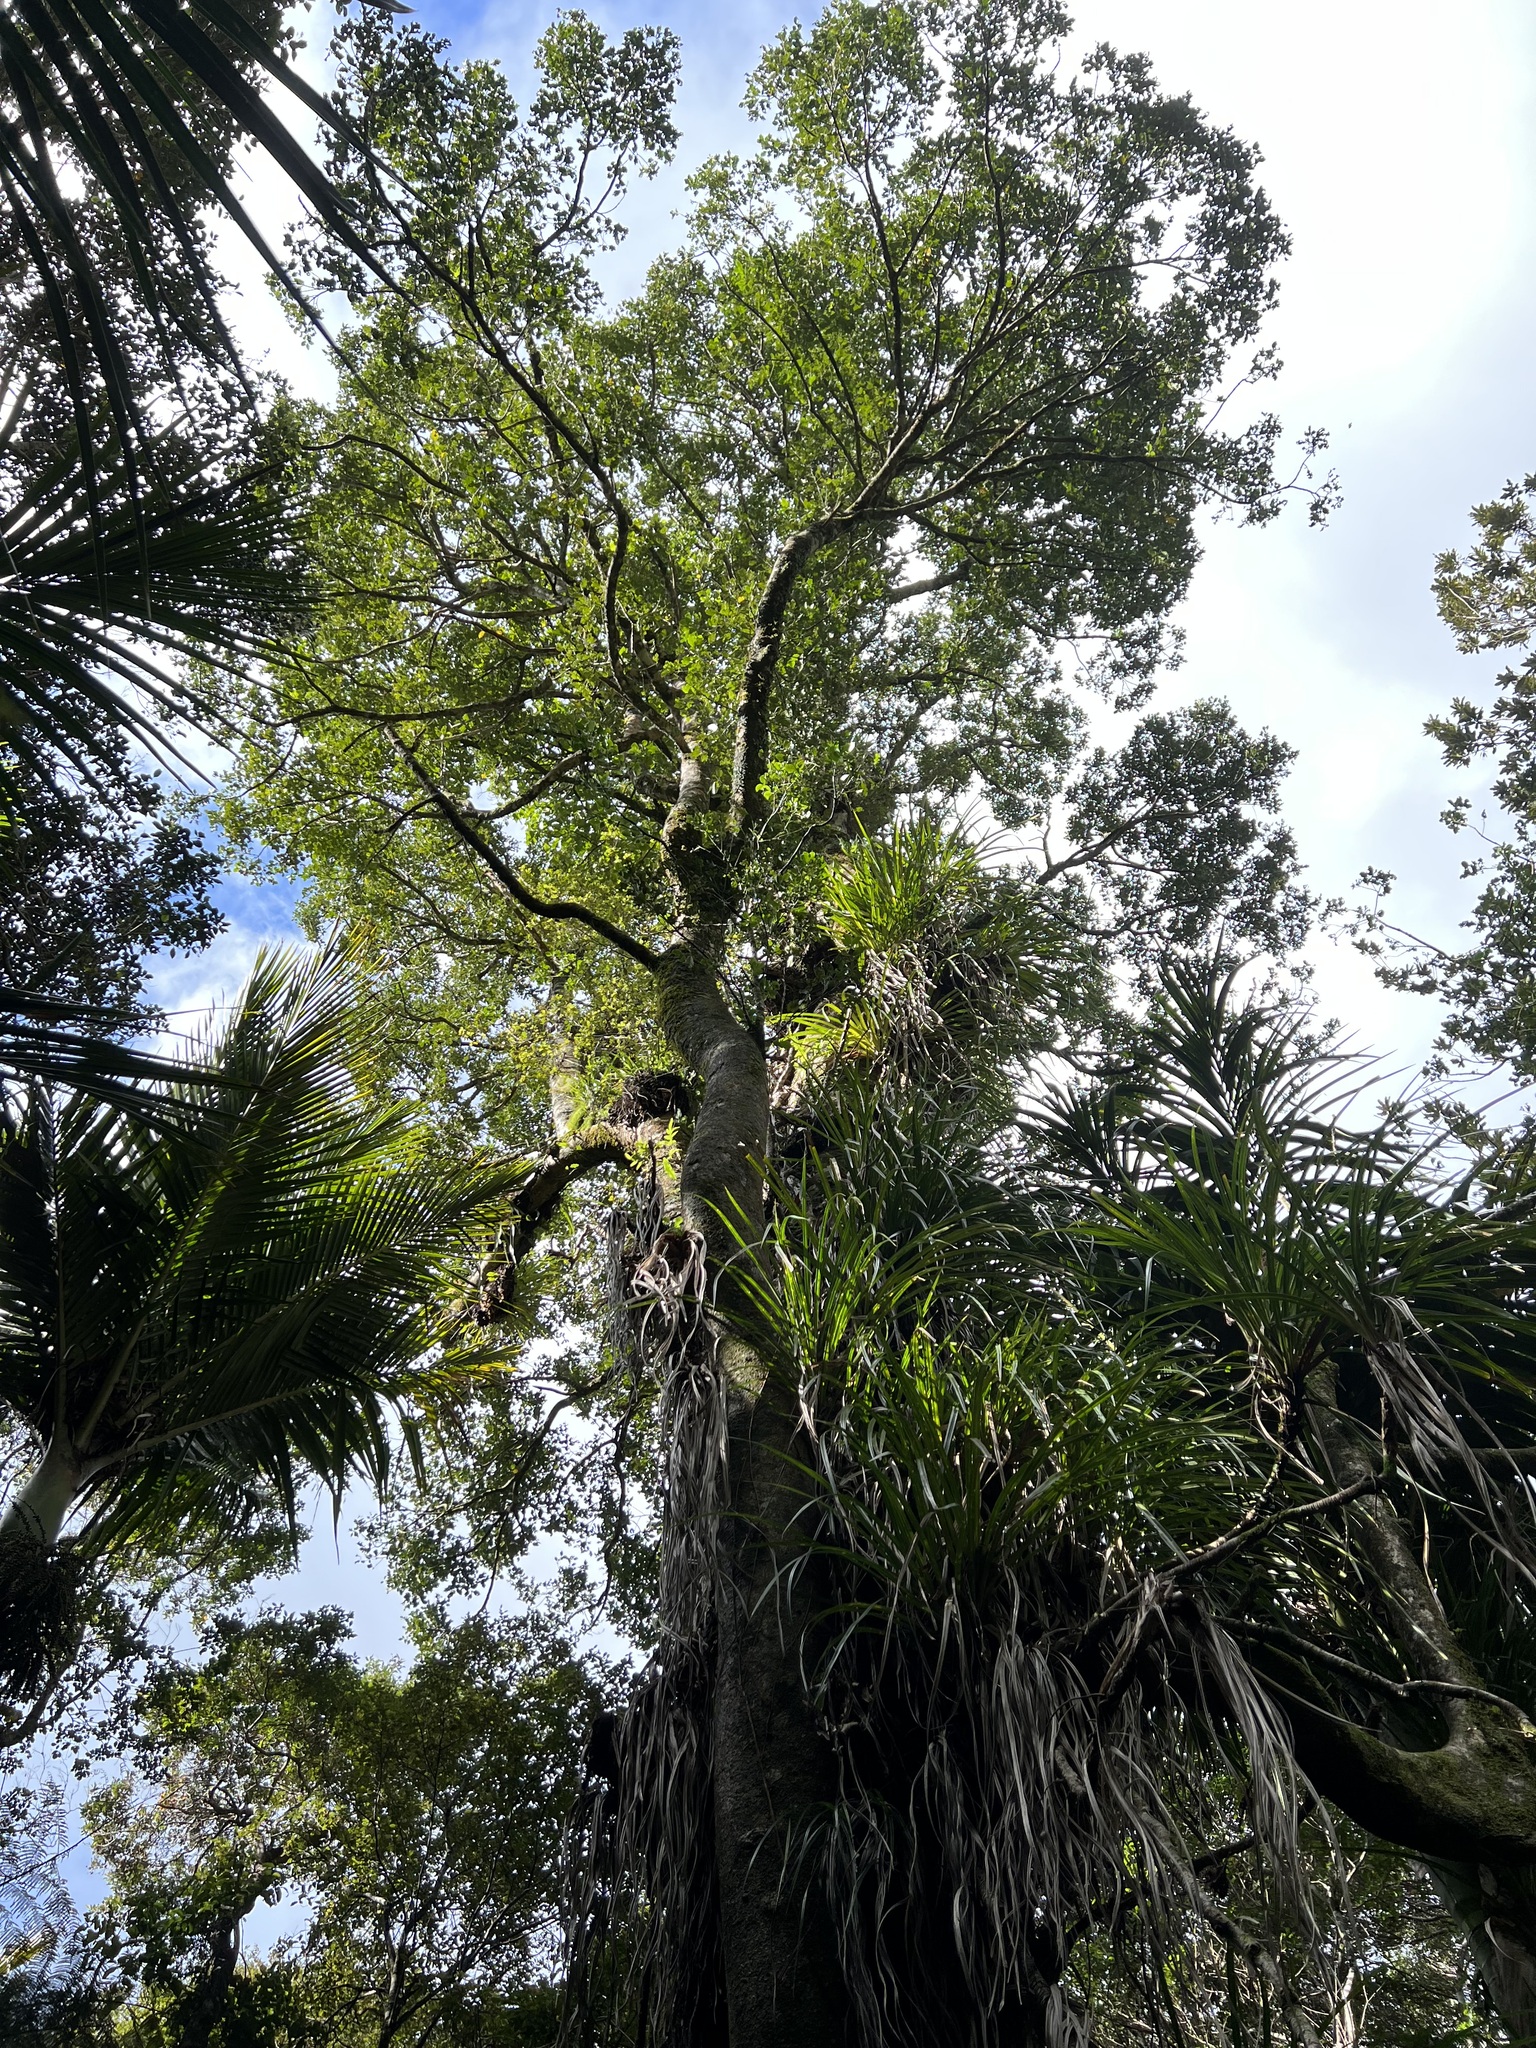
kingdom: Plantae
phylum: Tracheophyta
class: Magnoliopsida
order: Laurales
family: Atherospermataceae
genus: Laurelia
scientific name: Laurelia novae-zelandiae
